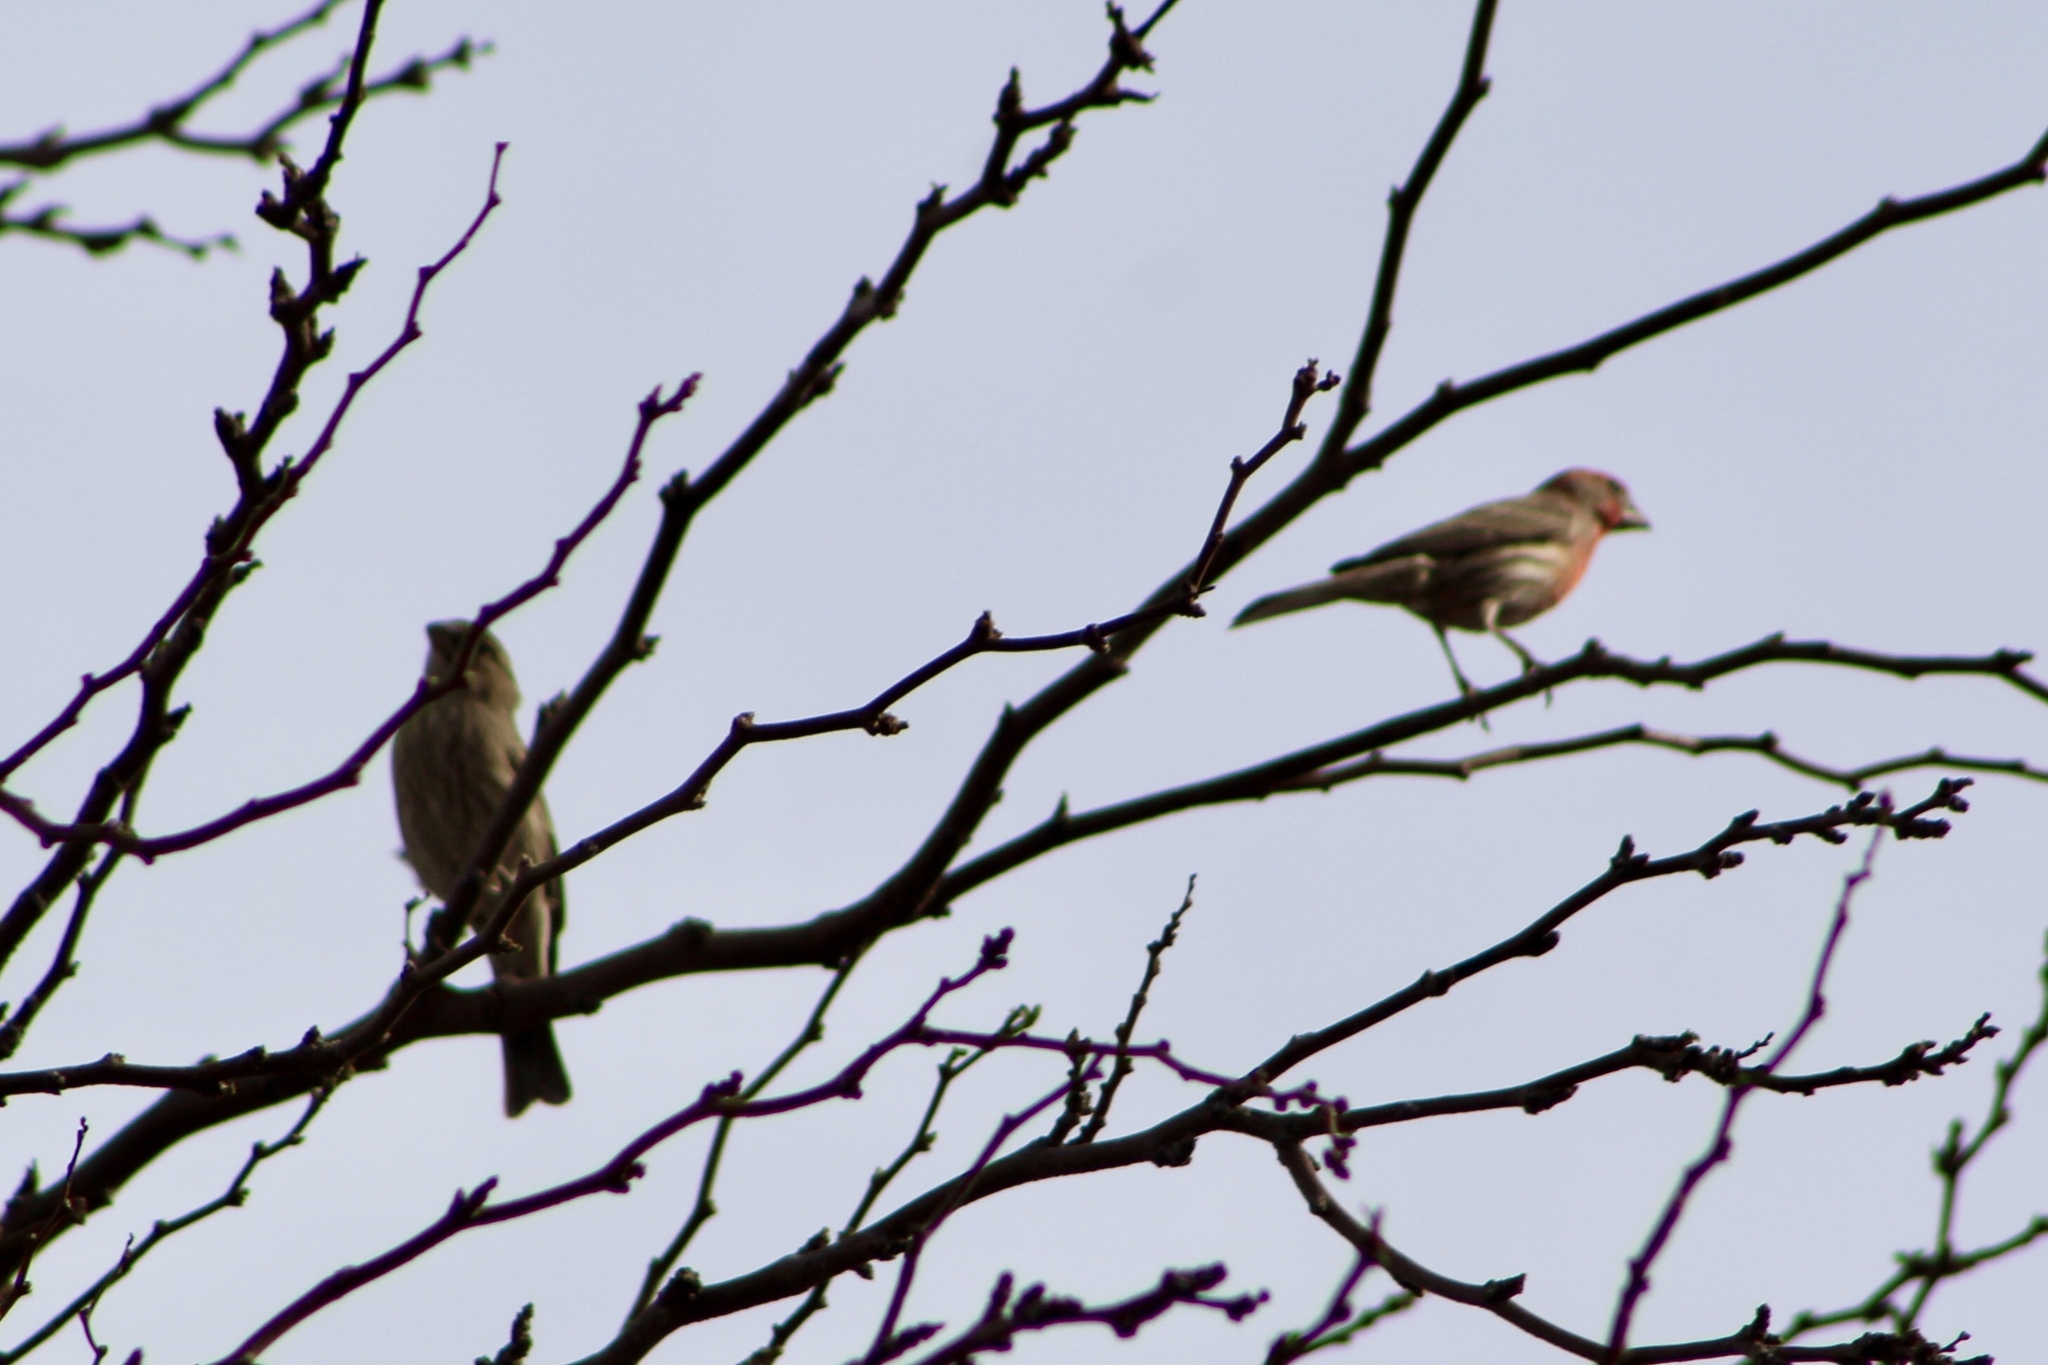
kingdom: Animalia
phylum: Chordata
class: Aves
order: Passeriformes
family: Fringillidae
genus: Haemorhous
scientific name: Haemorhous mexicanus
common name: House finch
